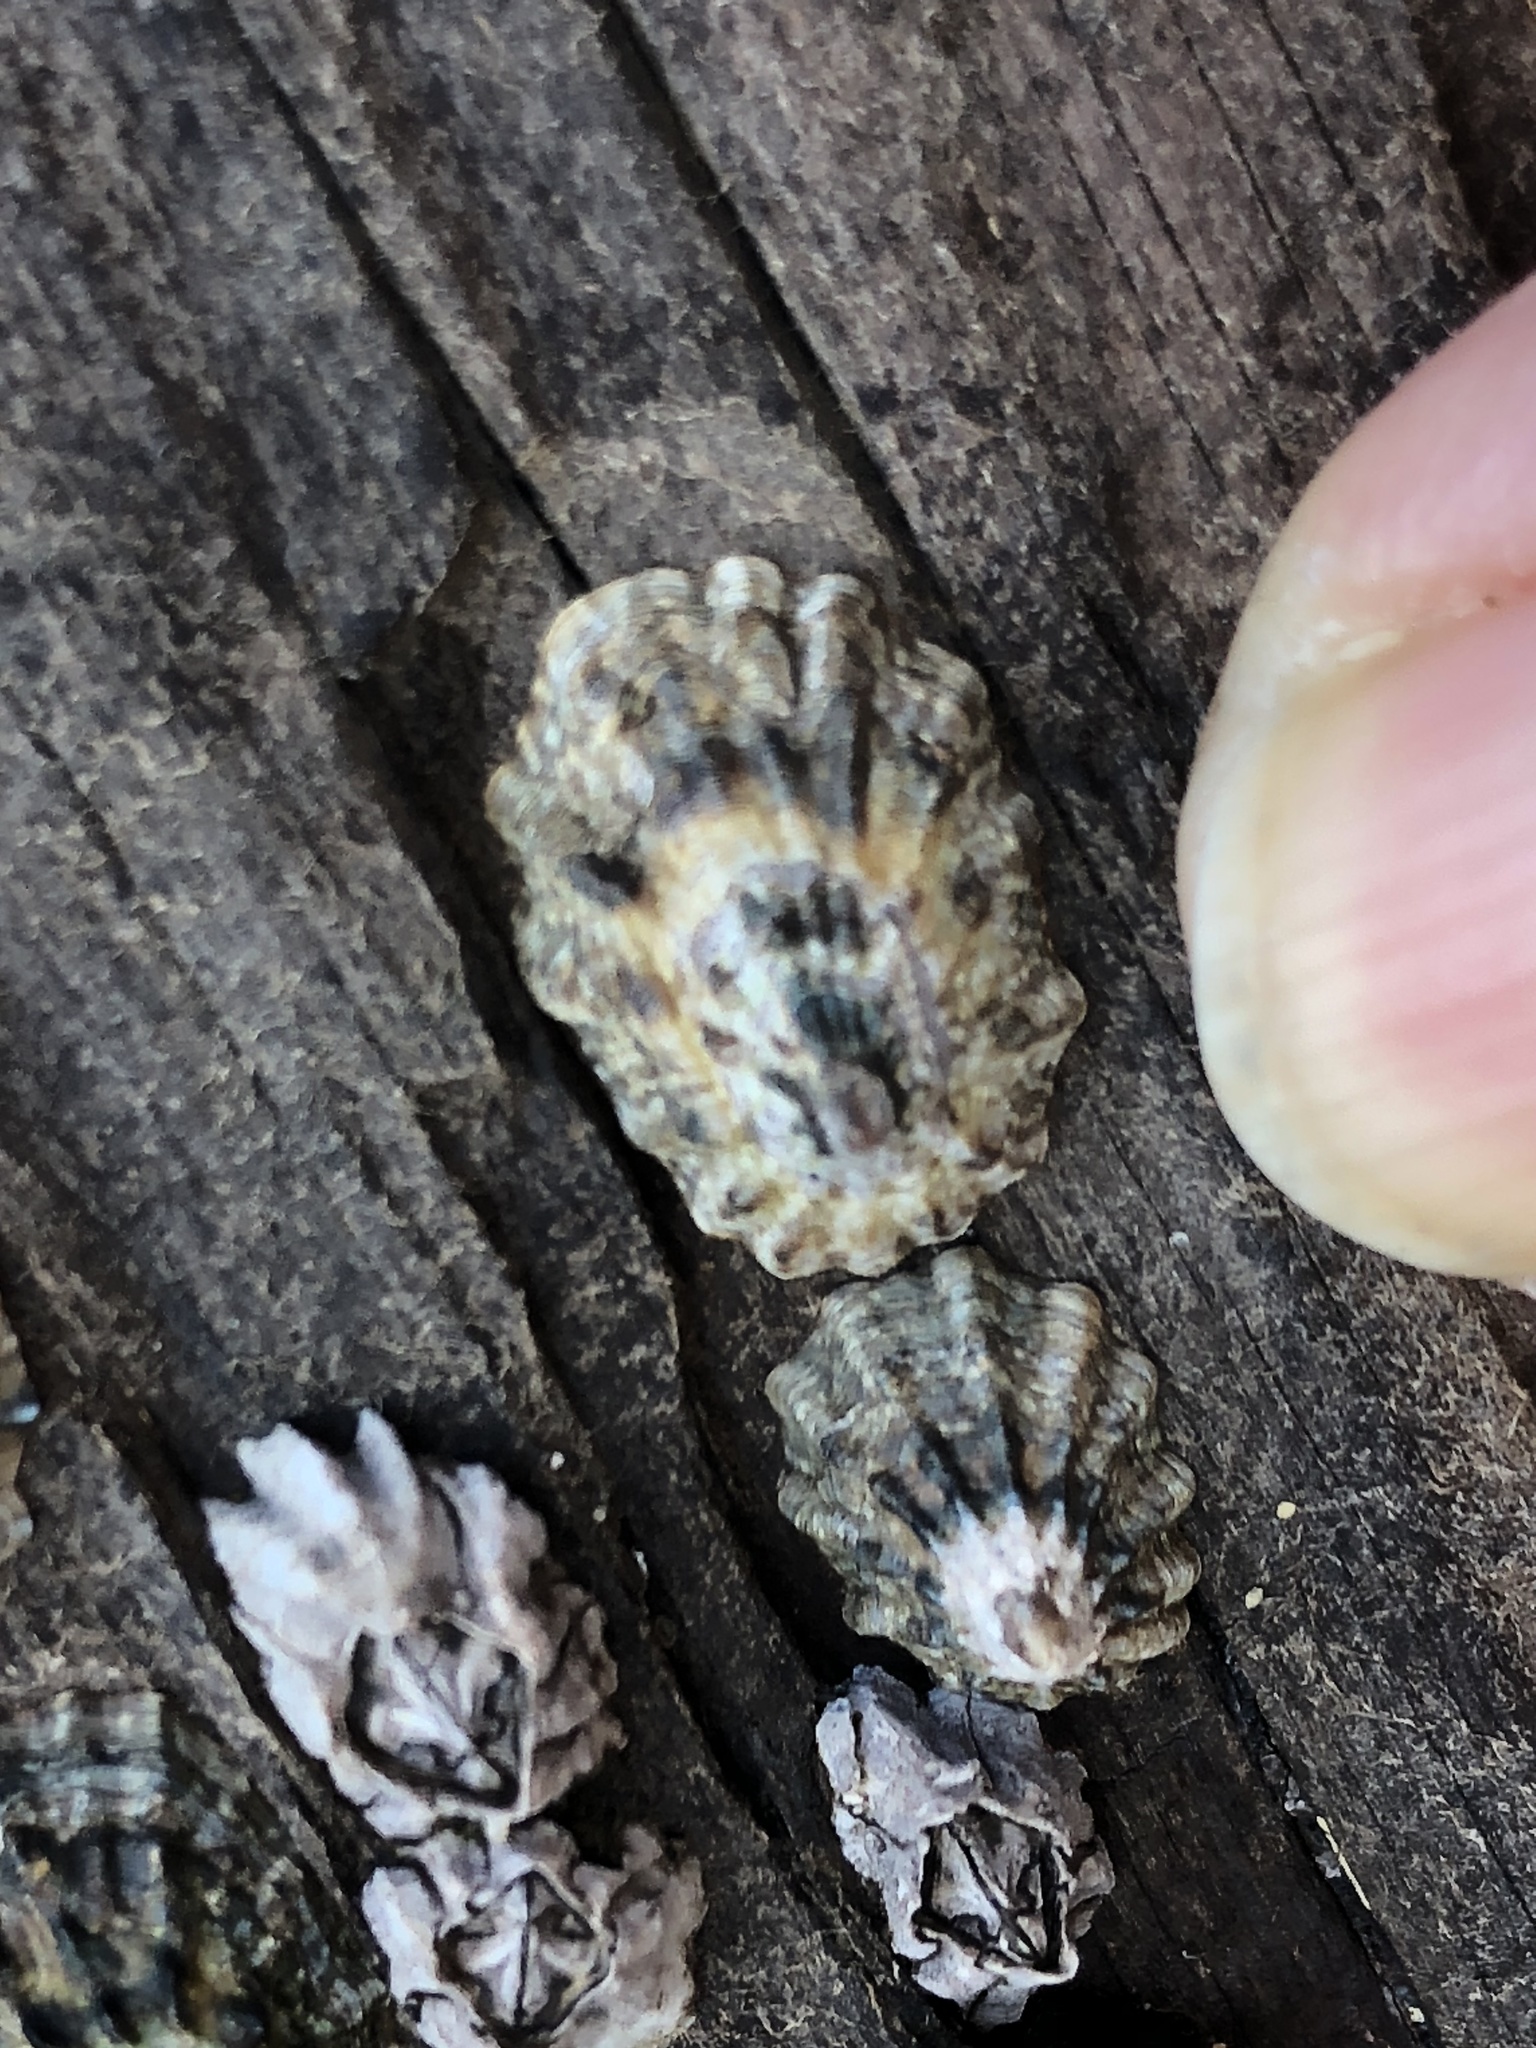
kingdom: Animalia
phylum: Mollusca
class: Gastropoda
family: Lottiidae
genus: Lottia
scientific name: Lottia scabra
